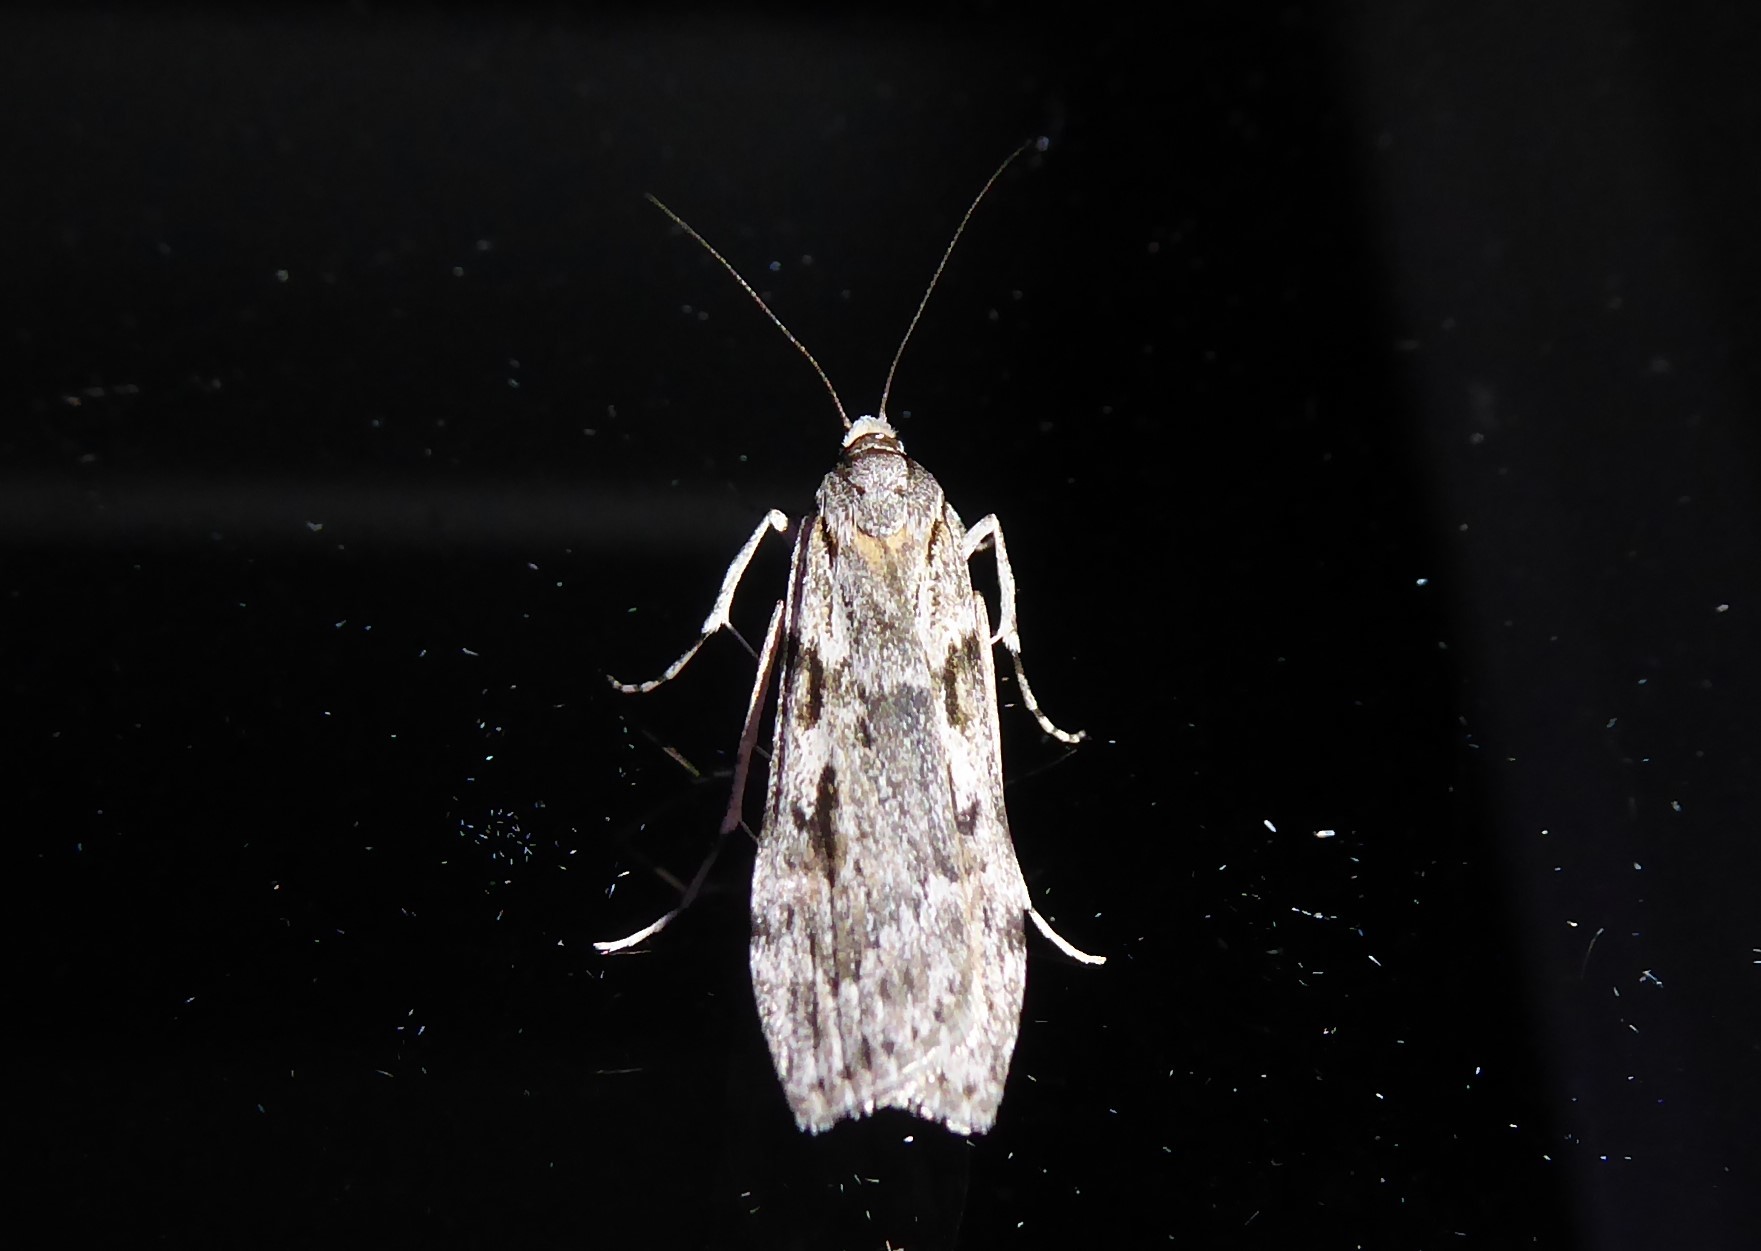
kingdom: Animalia
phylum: Arthropoda
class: Insecta
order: Lepidoptera
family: Crambidae
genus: Scoparia
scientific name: Scoparia halopis
